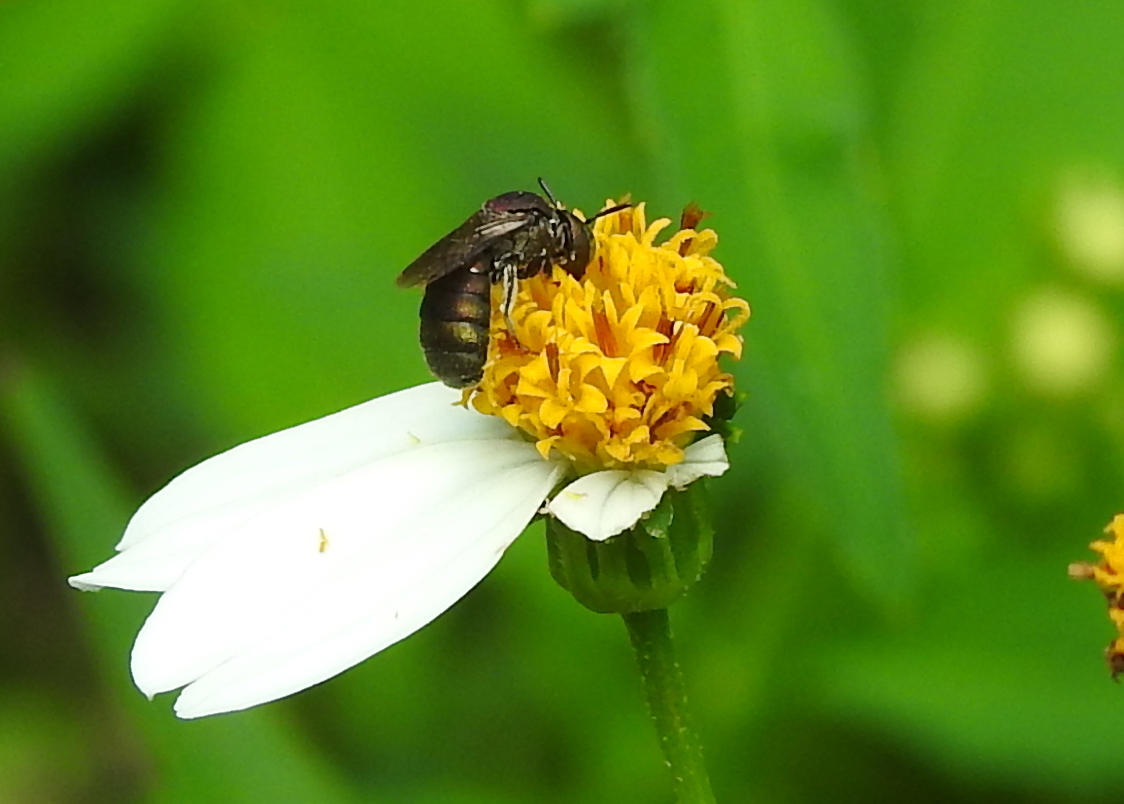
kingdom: Animalia
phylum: Arthropoda
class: Insecta
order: Hymenoptera
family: Apidae
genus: Ceratina
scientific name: Ceratina unimaculata
